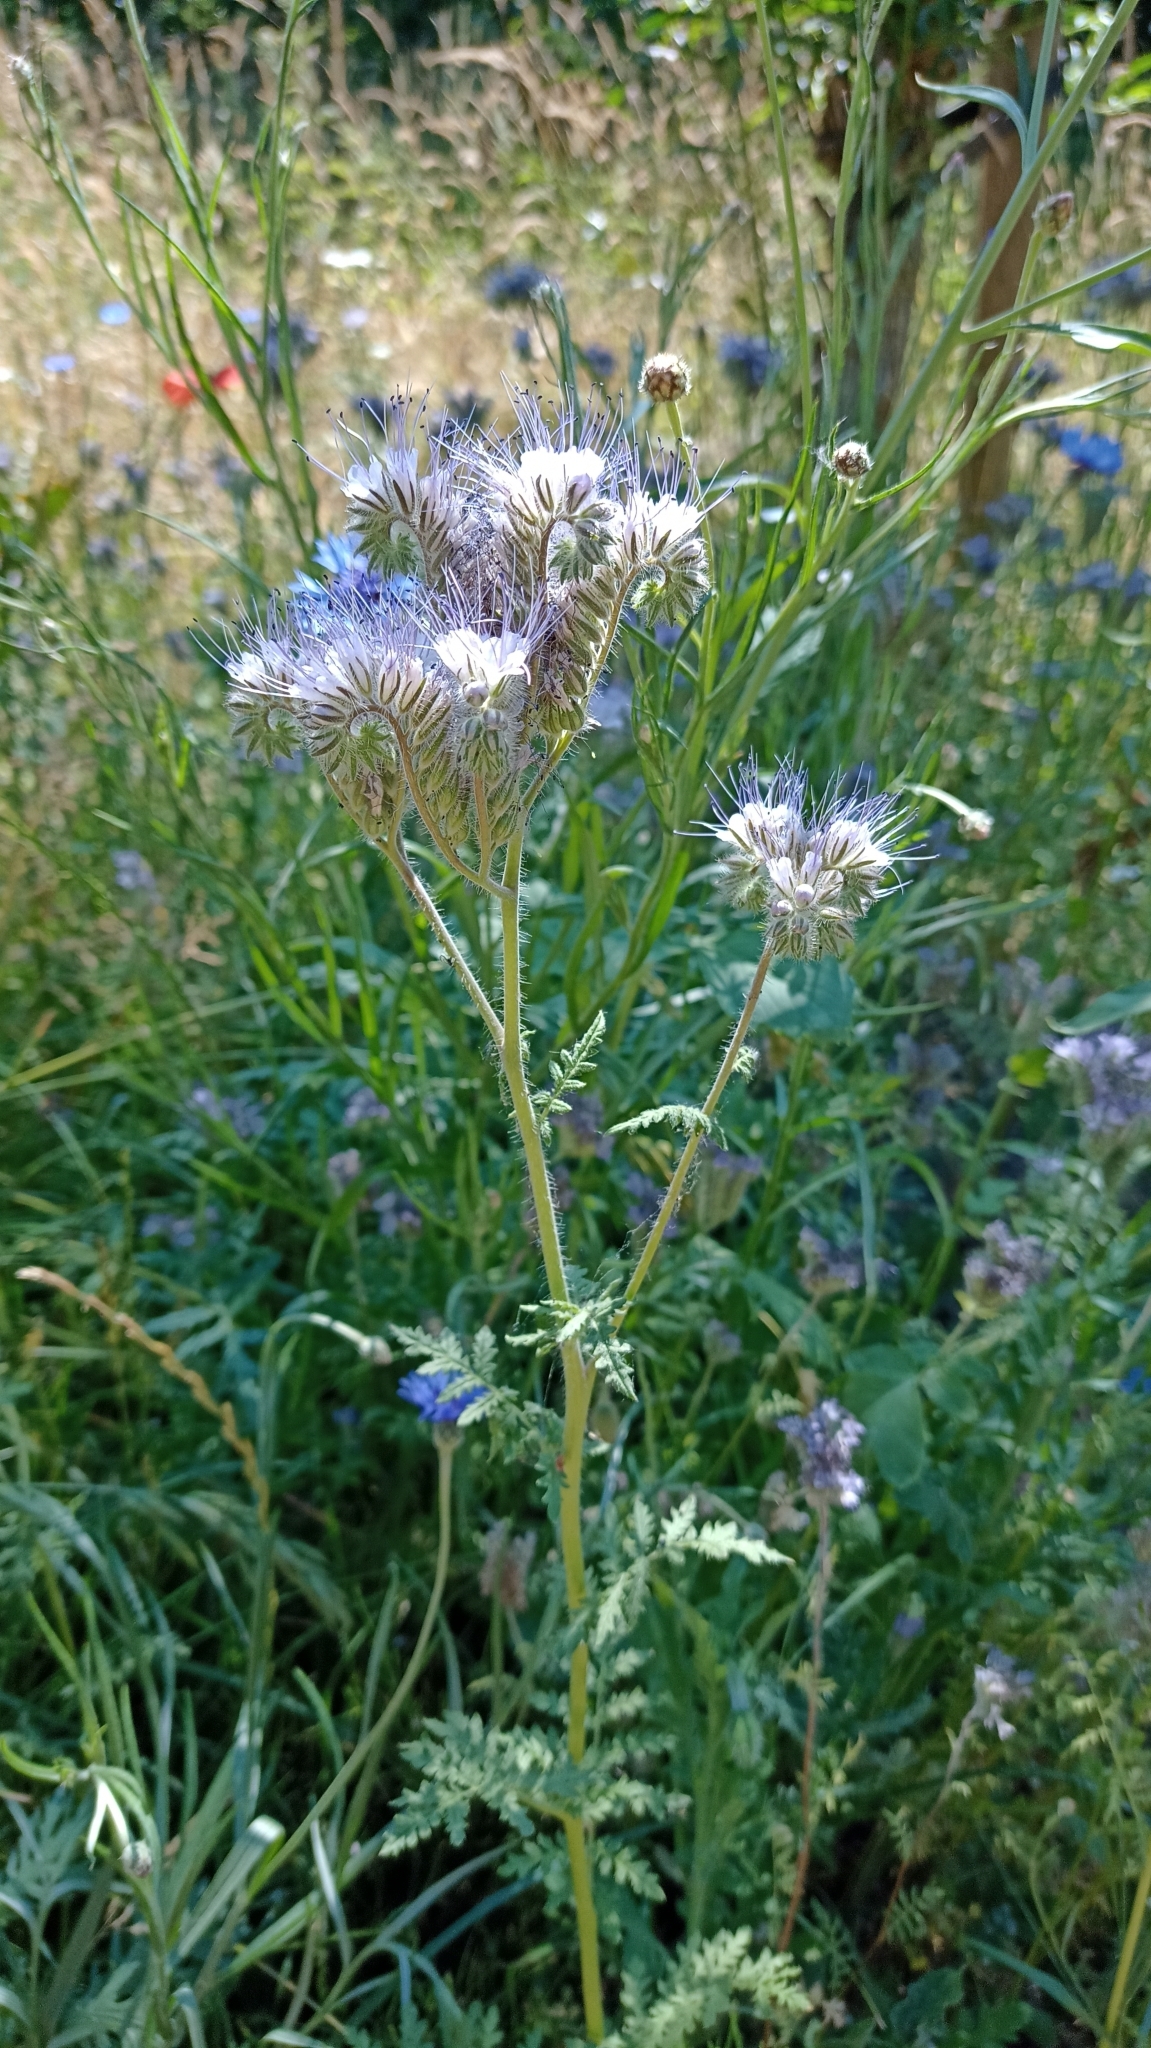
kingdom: Plantae
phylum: Tracheophyta
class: Magnoliopsida
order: Boraginales
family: Hydrophyllaceae
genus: Phacelia
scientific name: Phacelia tanacetifolia
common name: Phacelia
